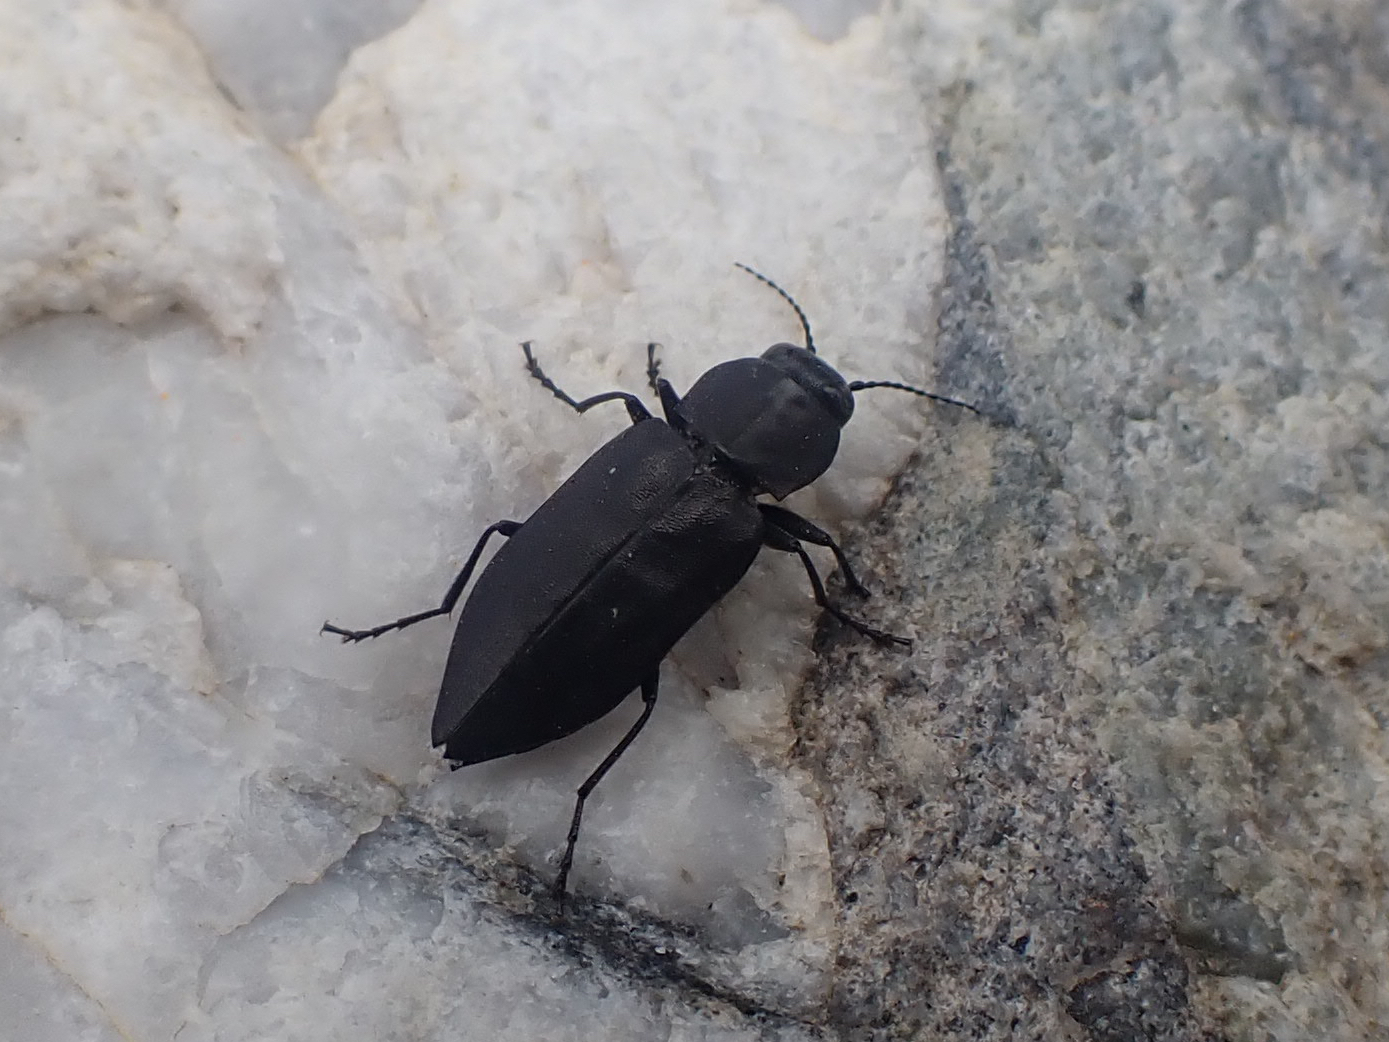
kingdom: Animalia
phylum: Arthropoda
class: Insecta
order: Coleoptera
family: Buprestidae
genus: Melanophila
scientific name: Melanophila acuminata
